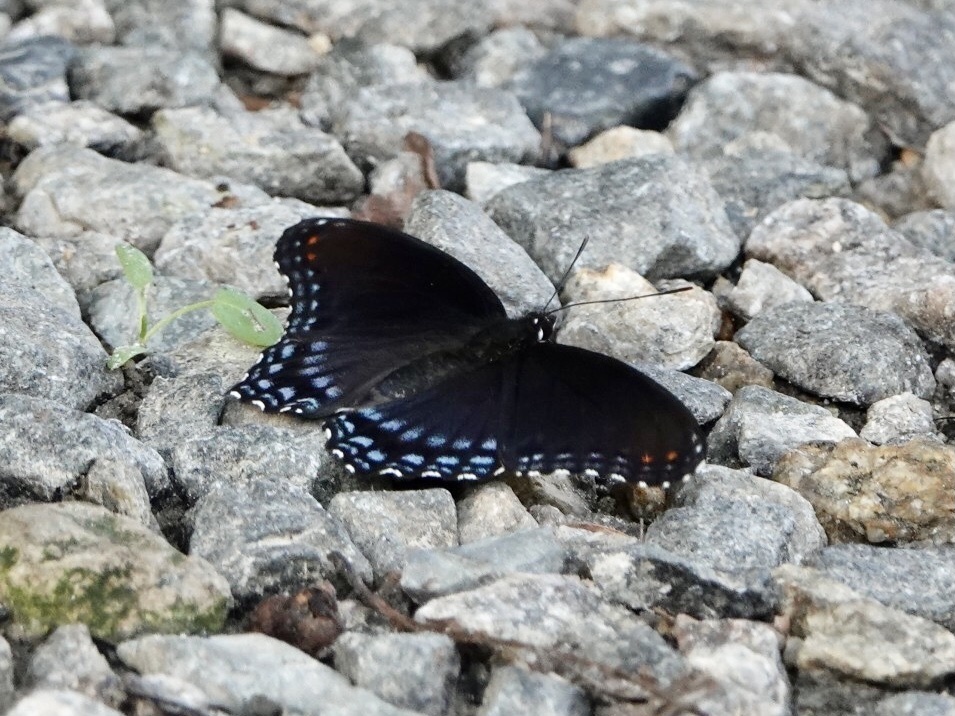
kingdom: Animalia
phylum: Arthropoda
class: Insecta
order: Lepidoptera
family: Nymphalidae
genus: Limenitis
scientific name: Limenitis astyanax
